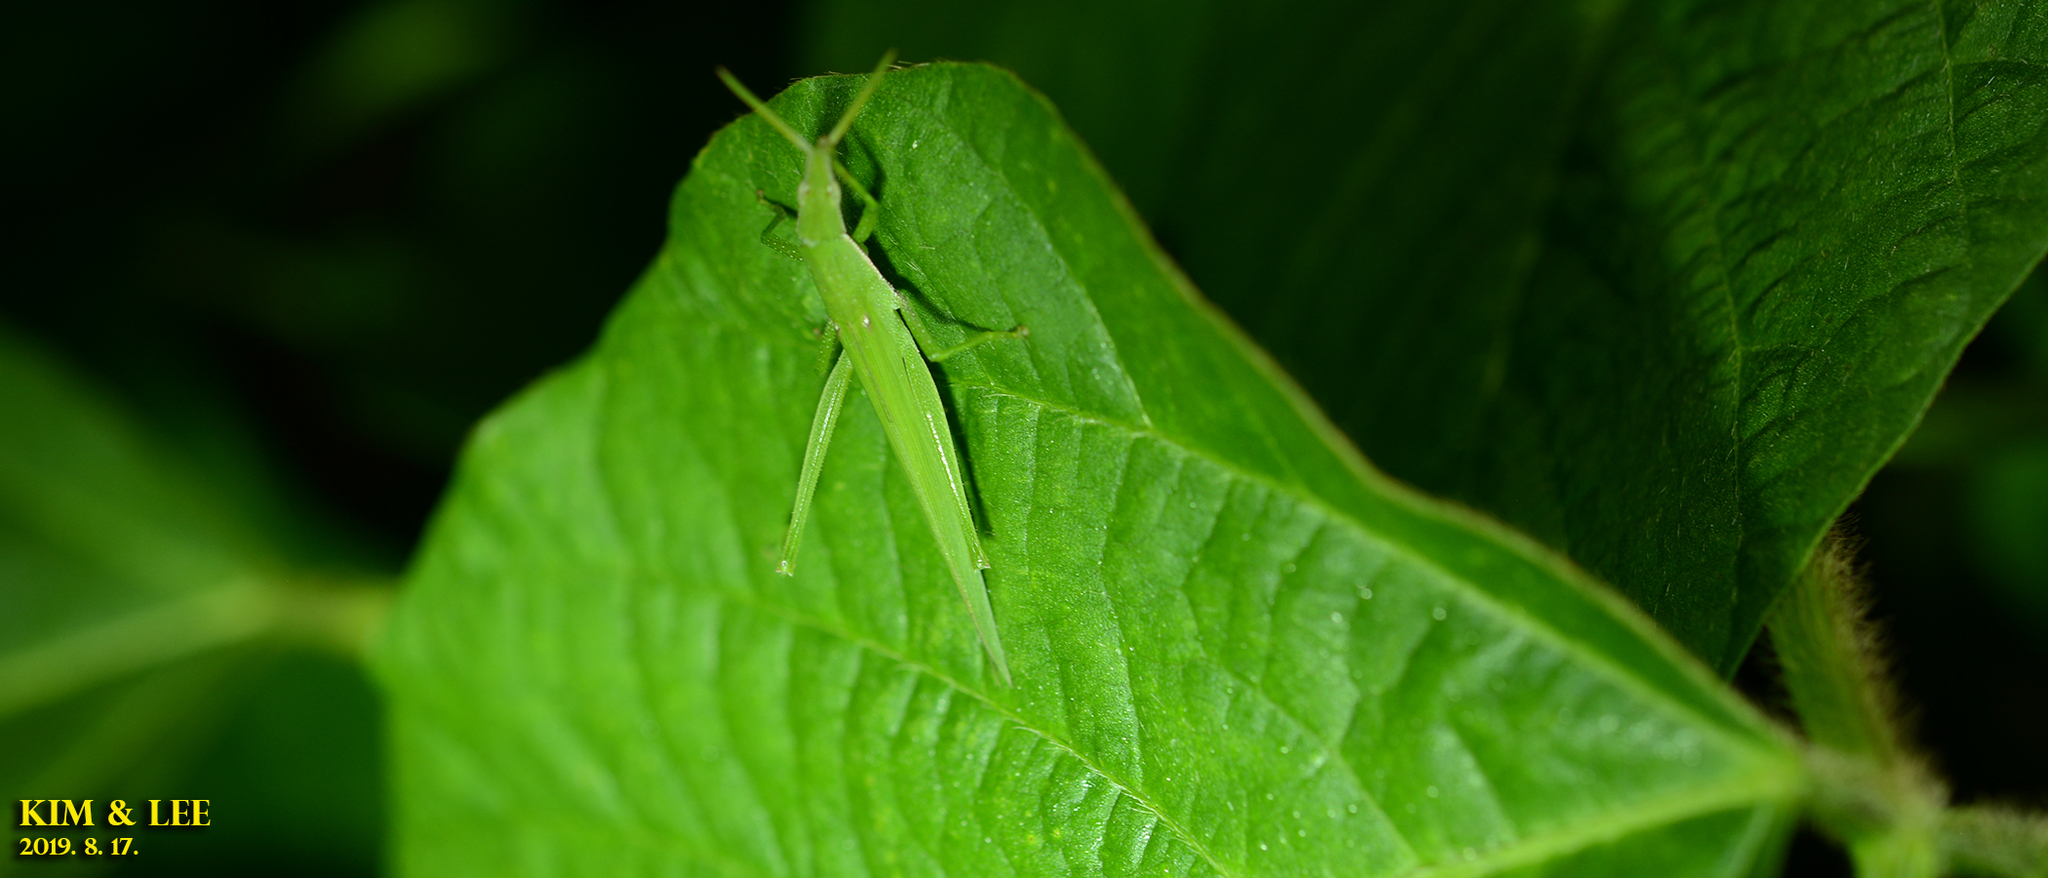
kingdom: Animalia
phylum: Arthropoda
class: Insecta
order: Orthoptera
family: Pyrgomorphidae
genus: Atractomorpha
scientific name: Atractomorpha lata
